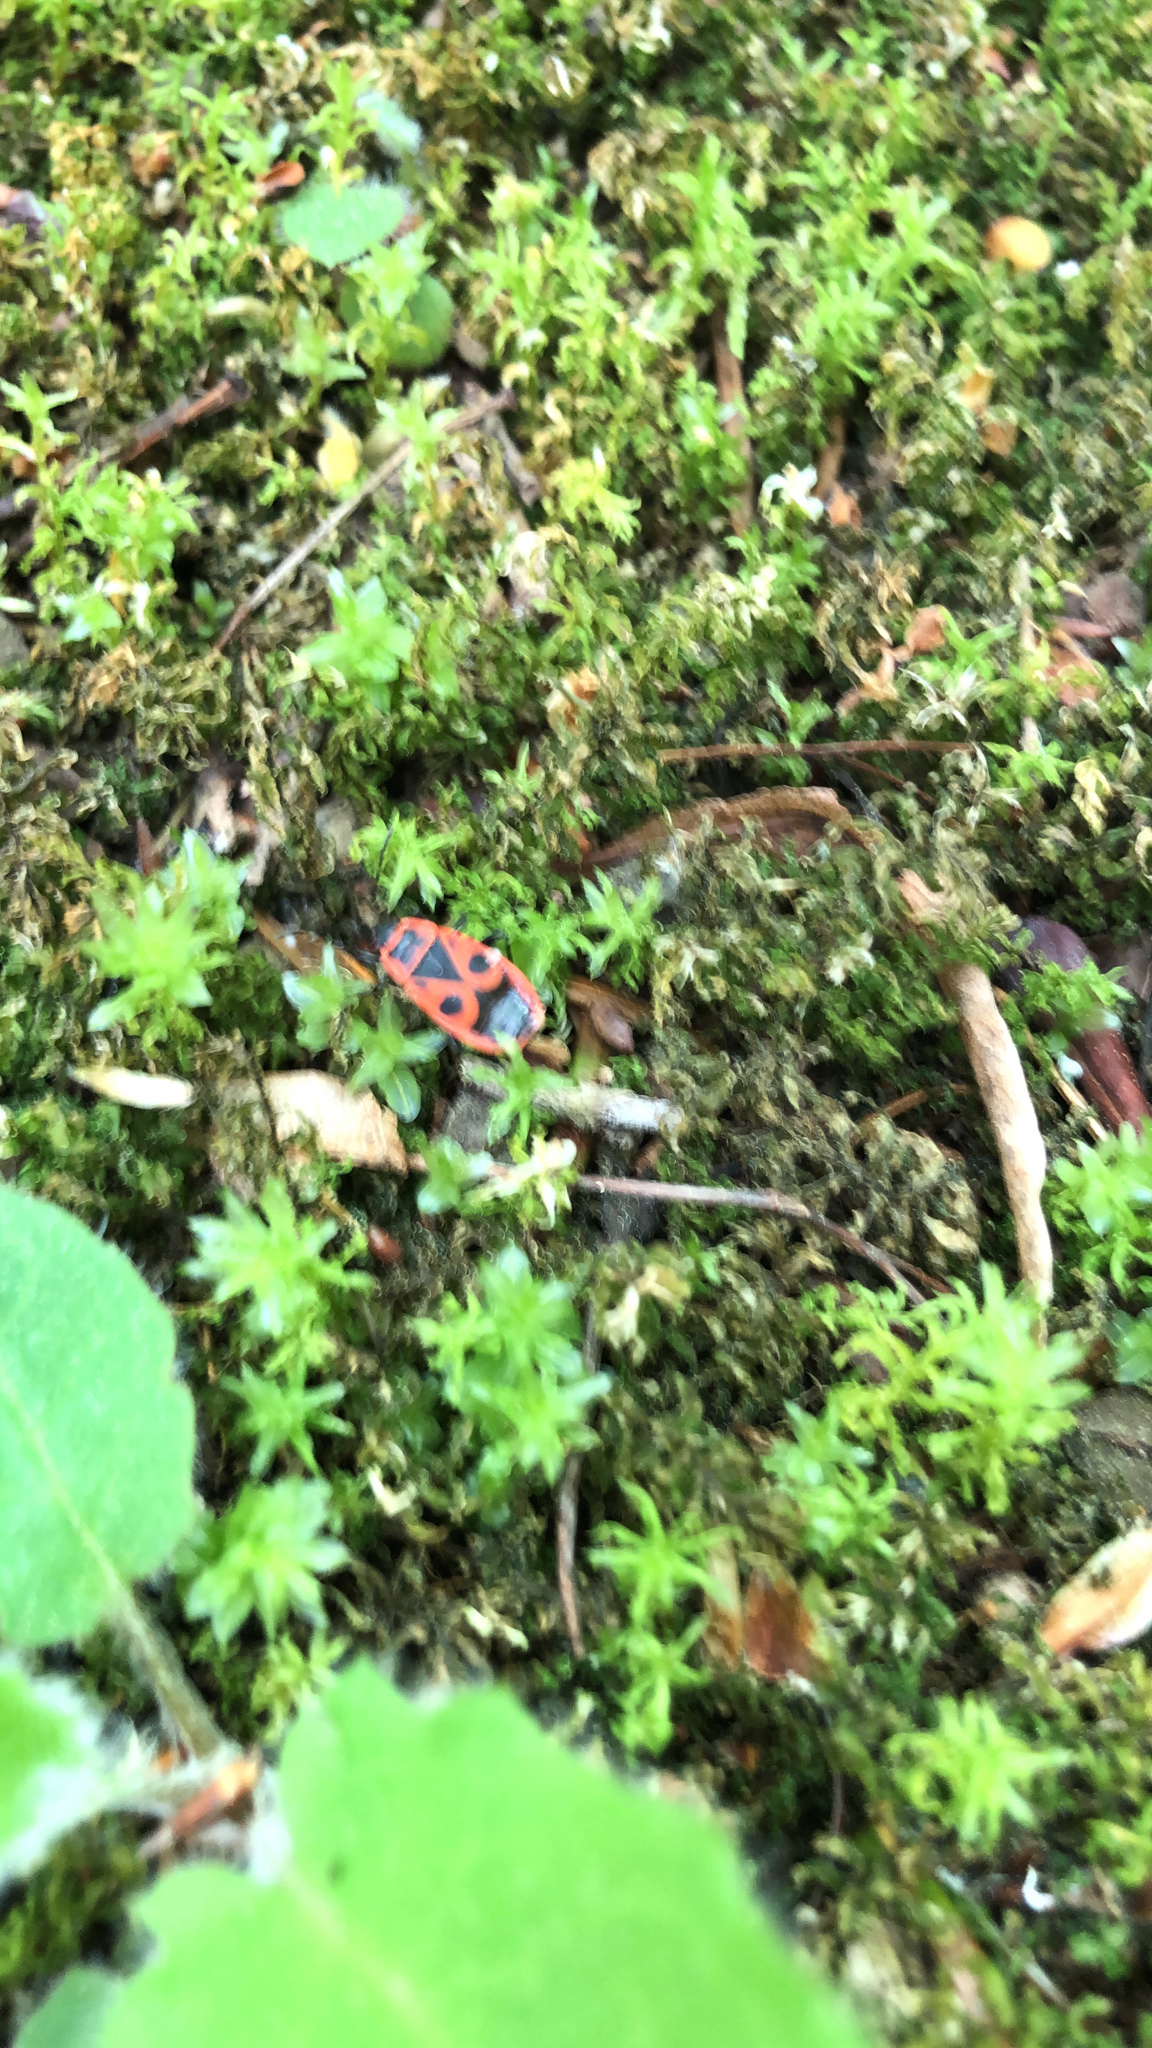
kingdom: Animalia
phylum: Arthropoda
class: Insecta
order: Hemiptera
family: Pyrrhocoridae
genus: Pyrrhocoris
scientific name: Pyrrhocoris apterus
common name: Firebug
